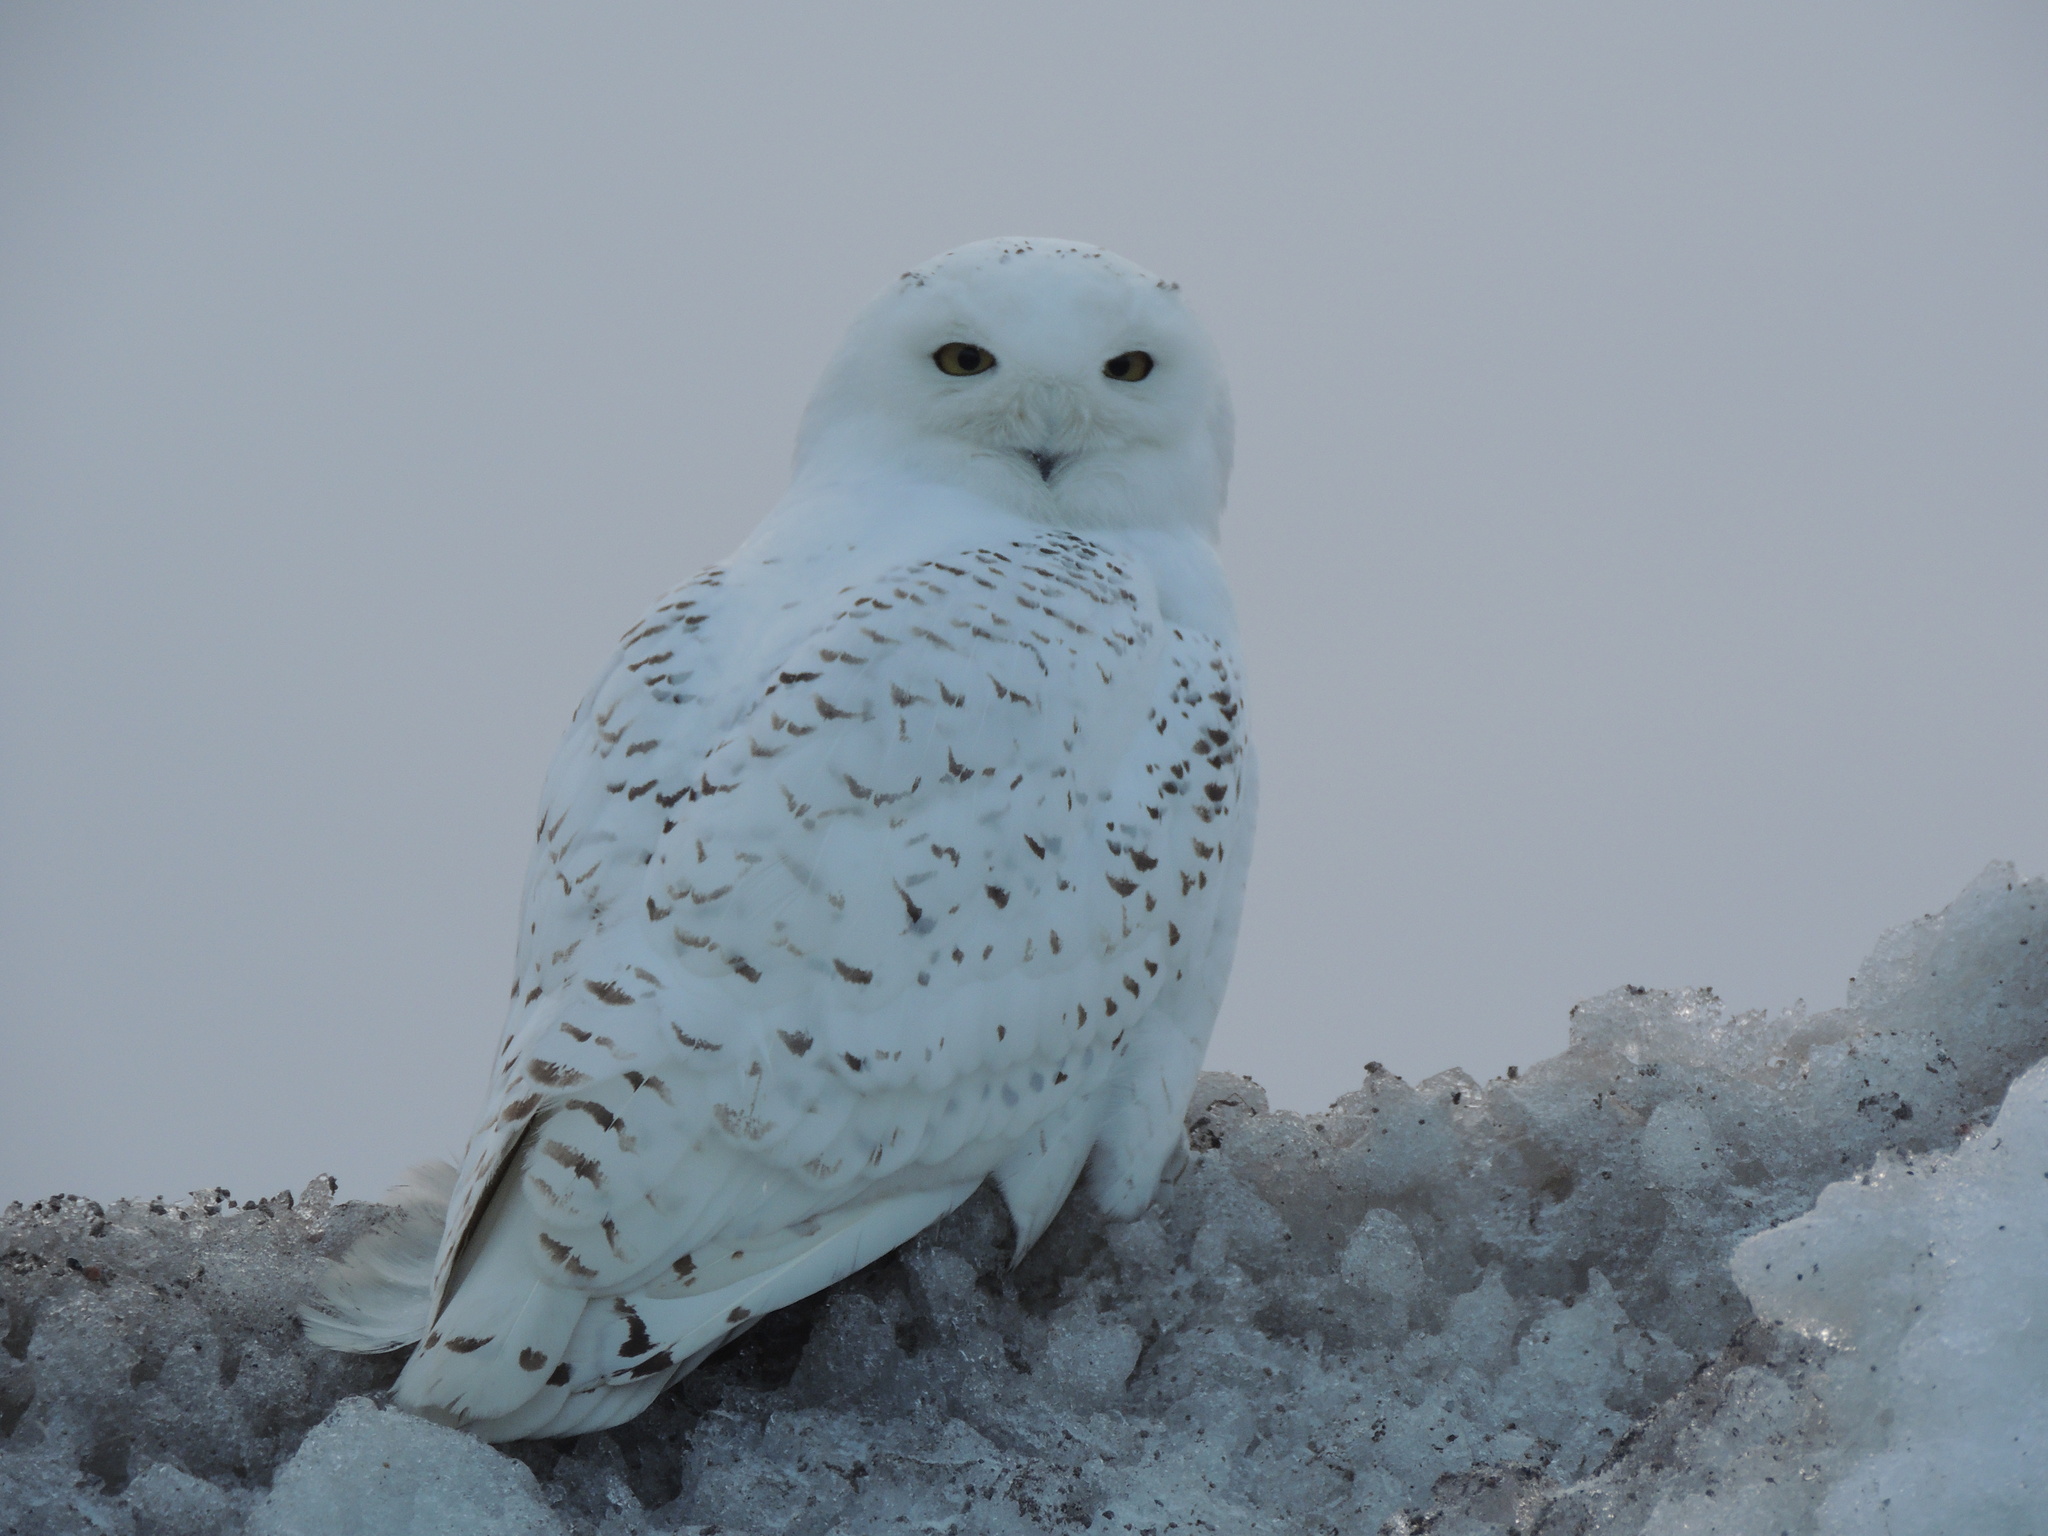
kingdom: Animalia
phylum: Chordata
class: Aves
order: Strigiformes
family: Strigidae
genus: Bubo
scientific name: Bubo scandiacus
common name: Snowy owl
